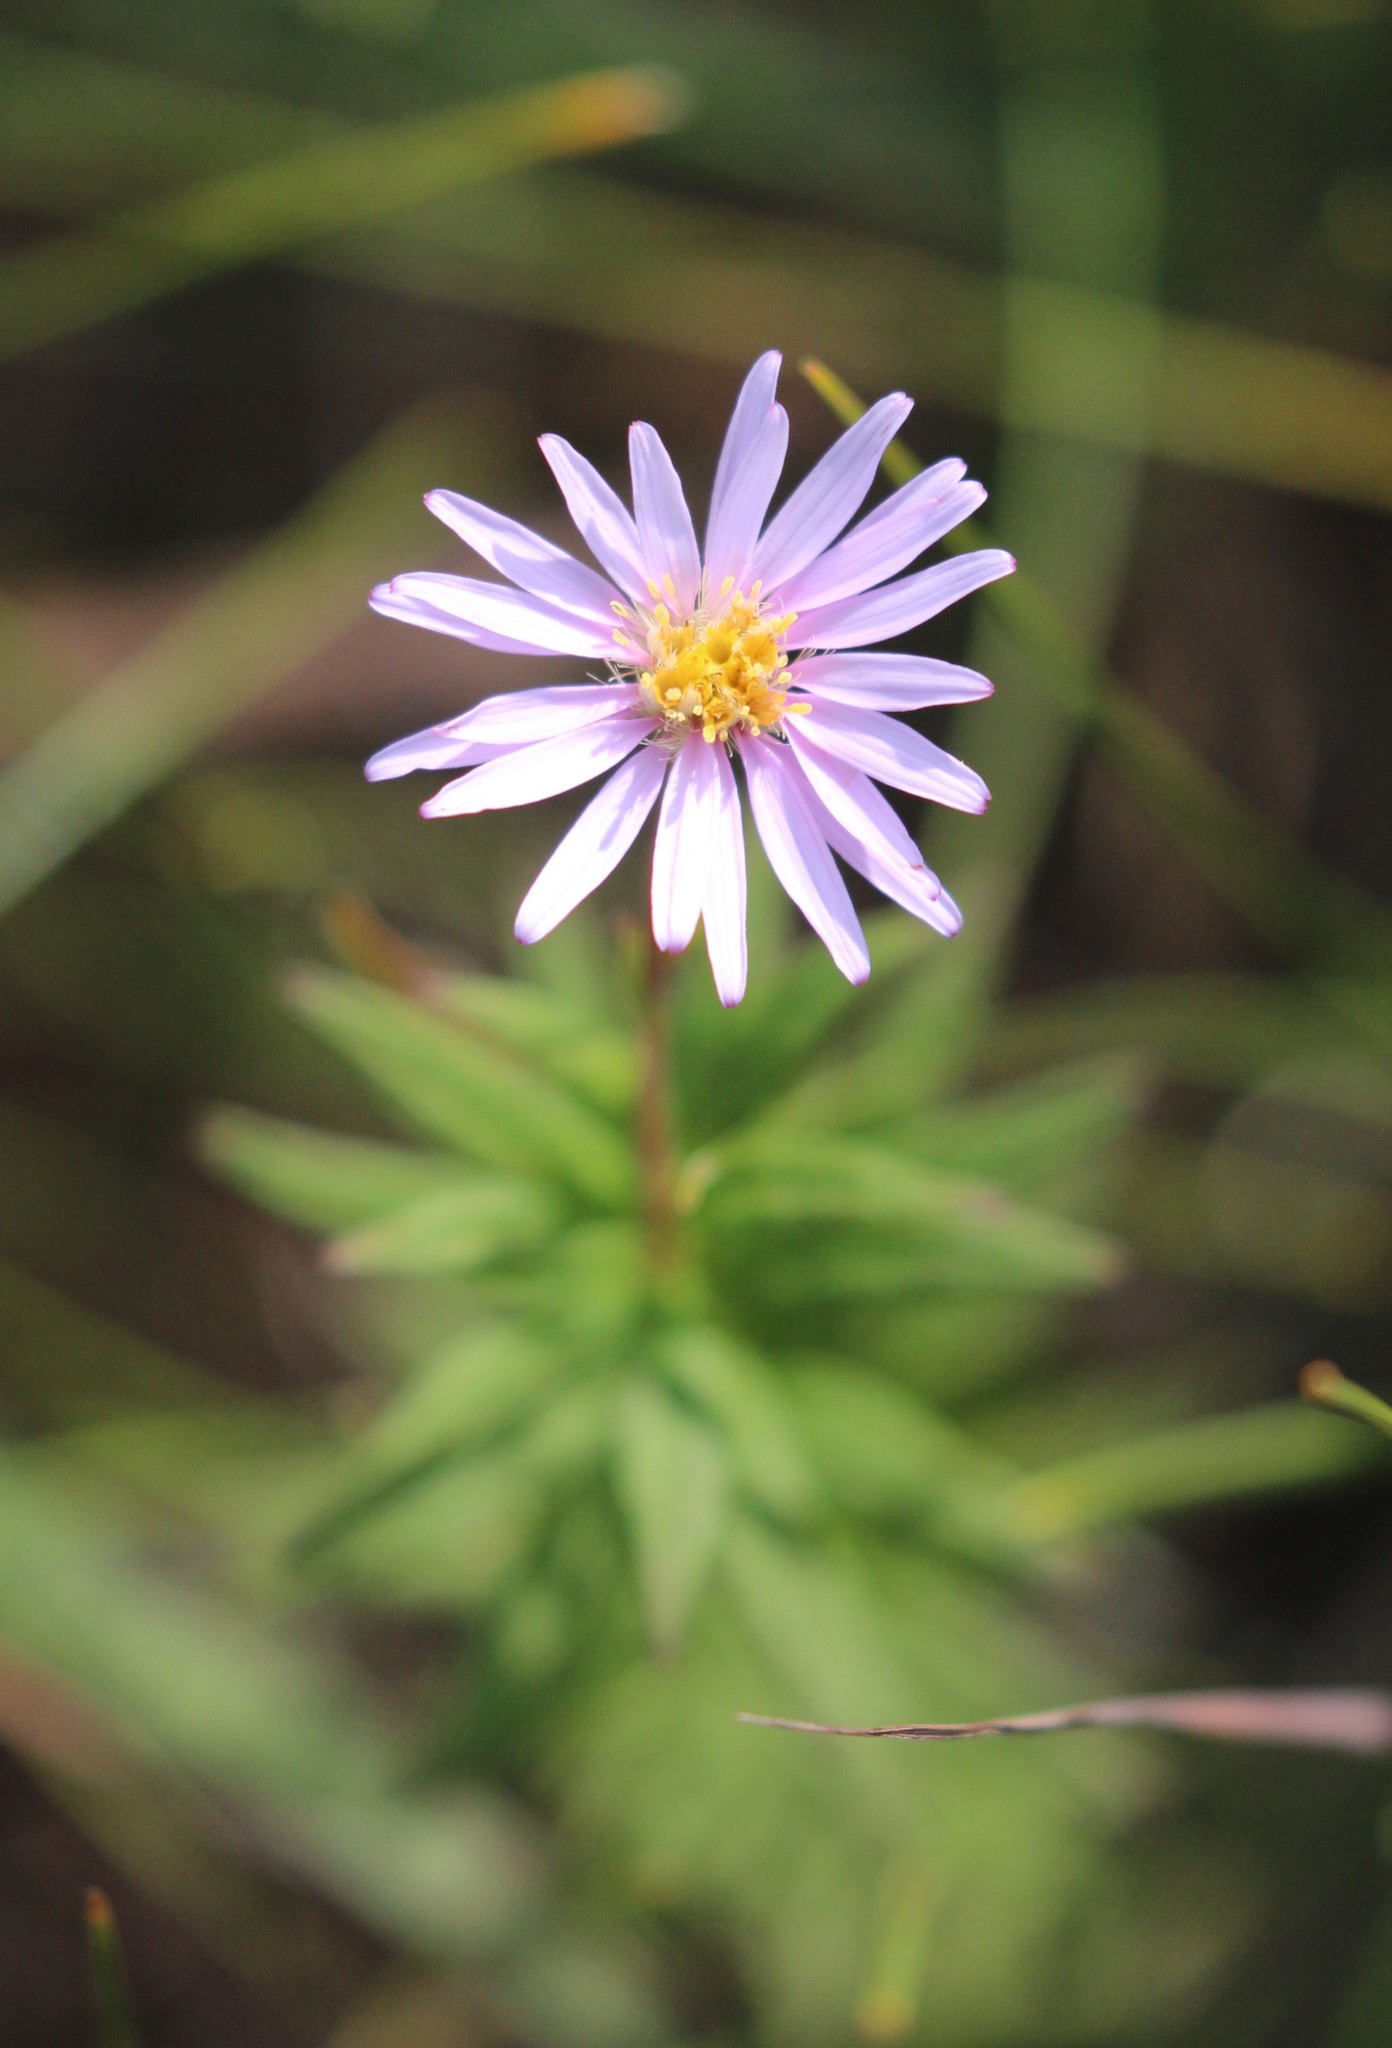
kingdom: Plantae
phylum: Tracheophyta
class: Magnoliopsida
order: Asterales
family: Asteraceae
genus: Oclemena
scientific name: Oclemena nemoralis
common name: Bog aster
